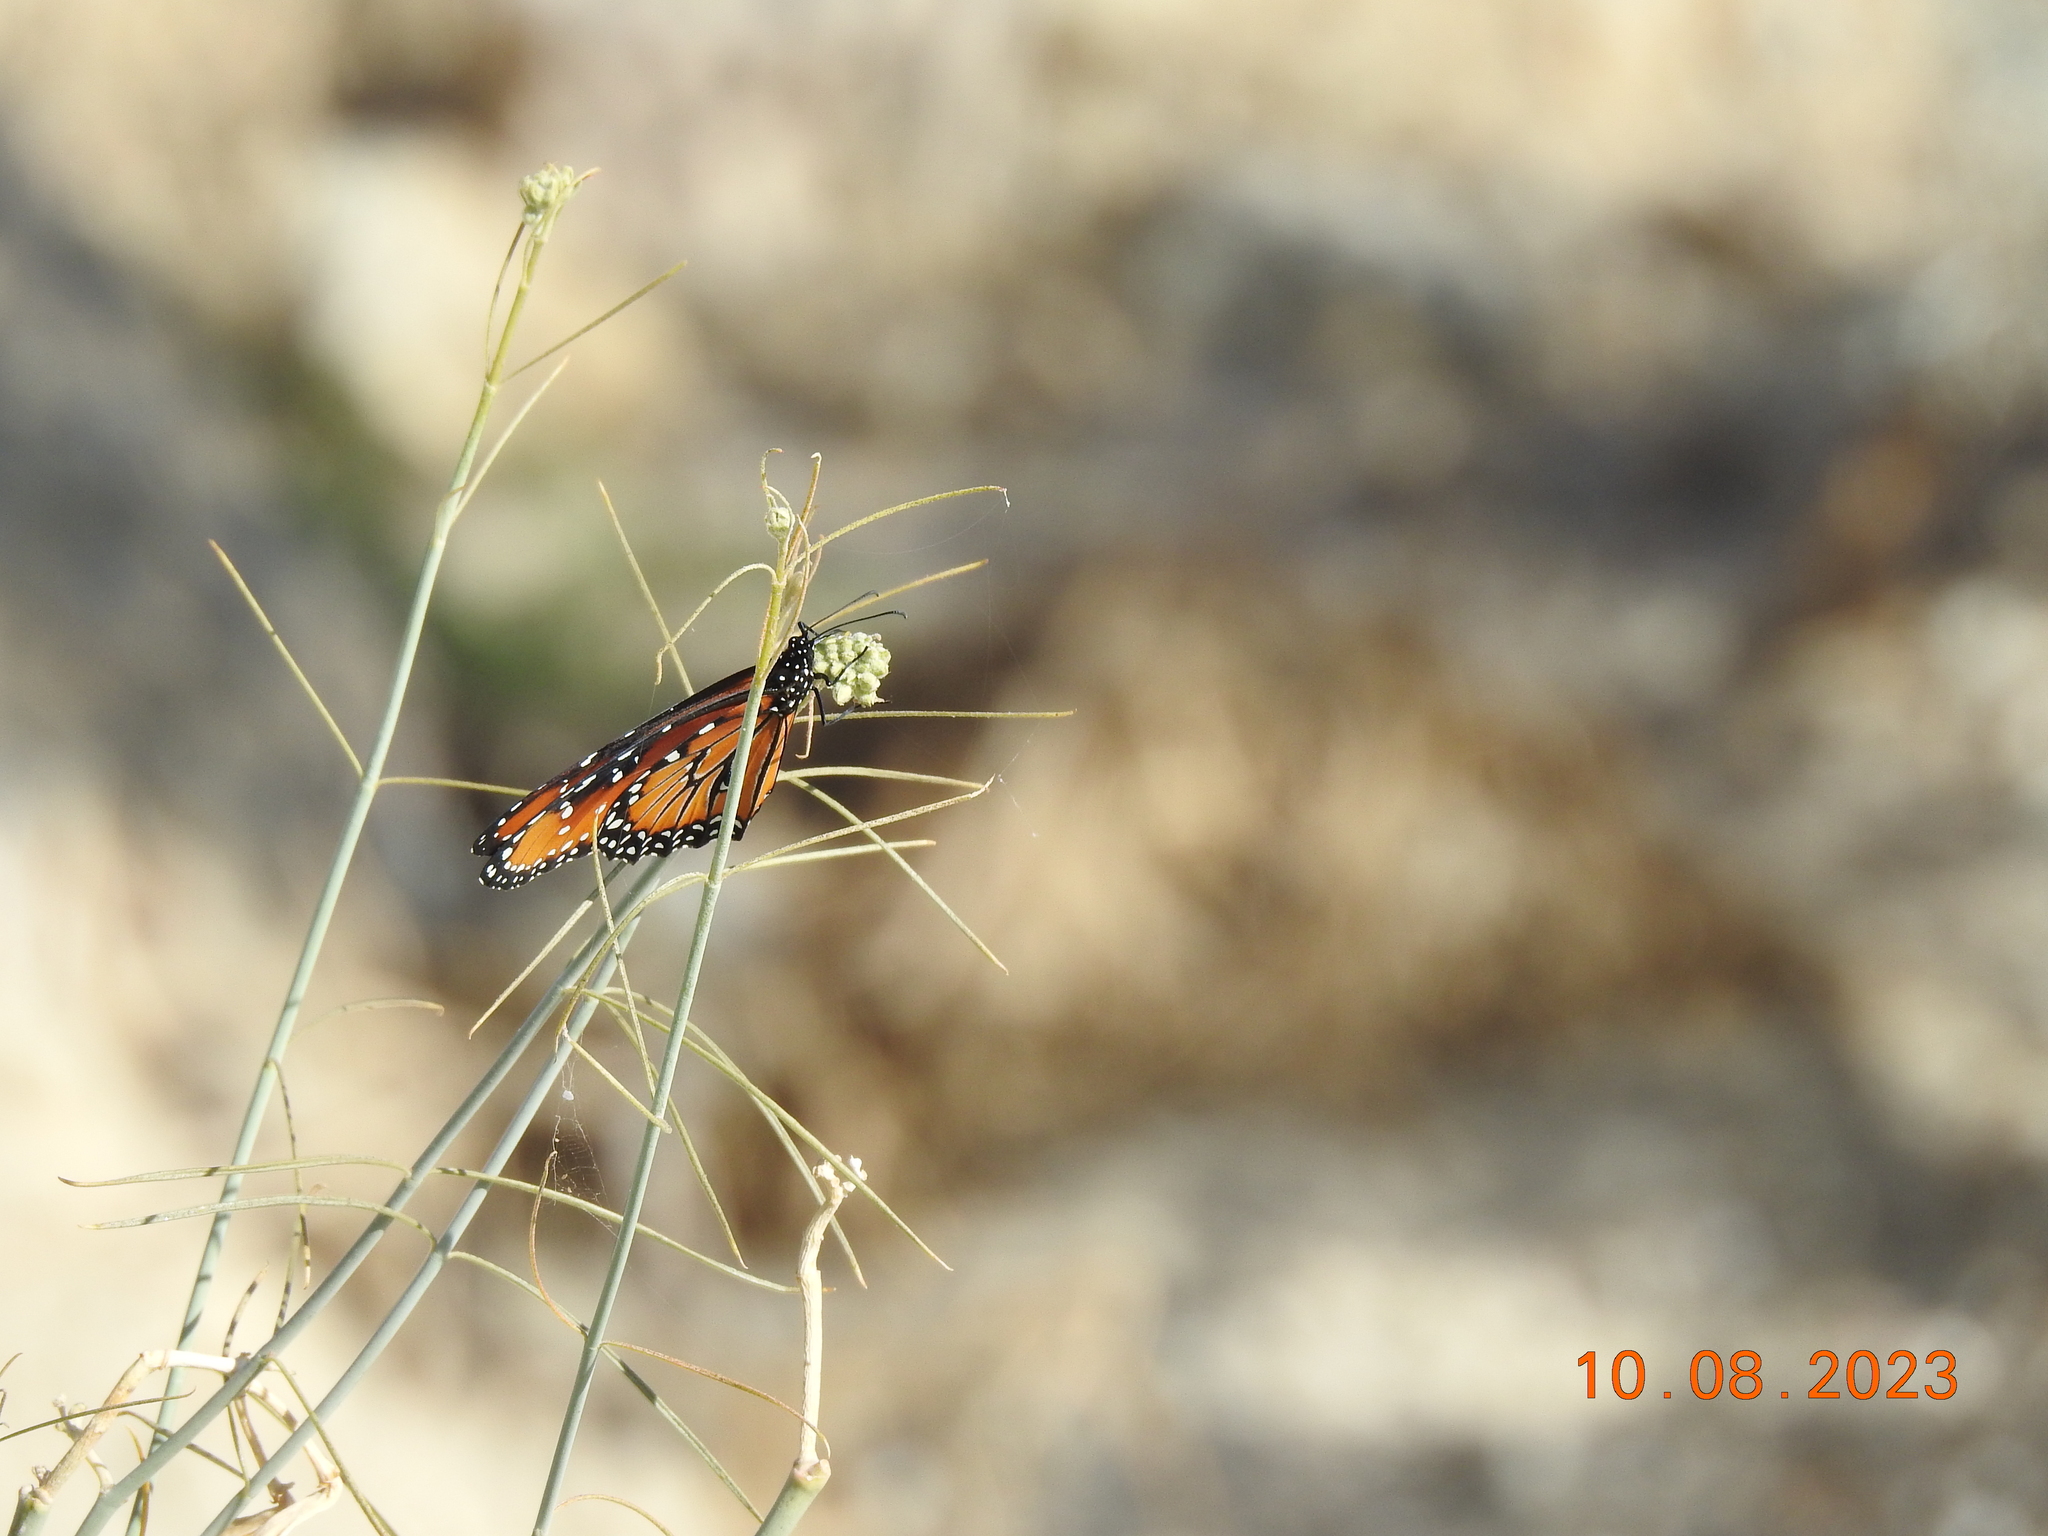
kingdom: Animalia
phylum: Arthropoda
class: Insecta
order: Lepidoptera
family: Nymphalidae
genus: Danaus
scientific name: Danaus gilippus
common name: Queen
